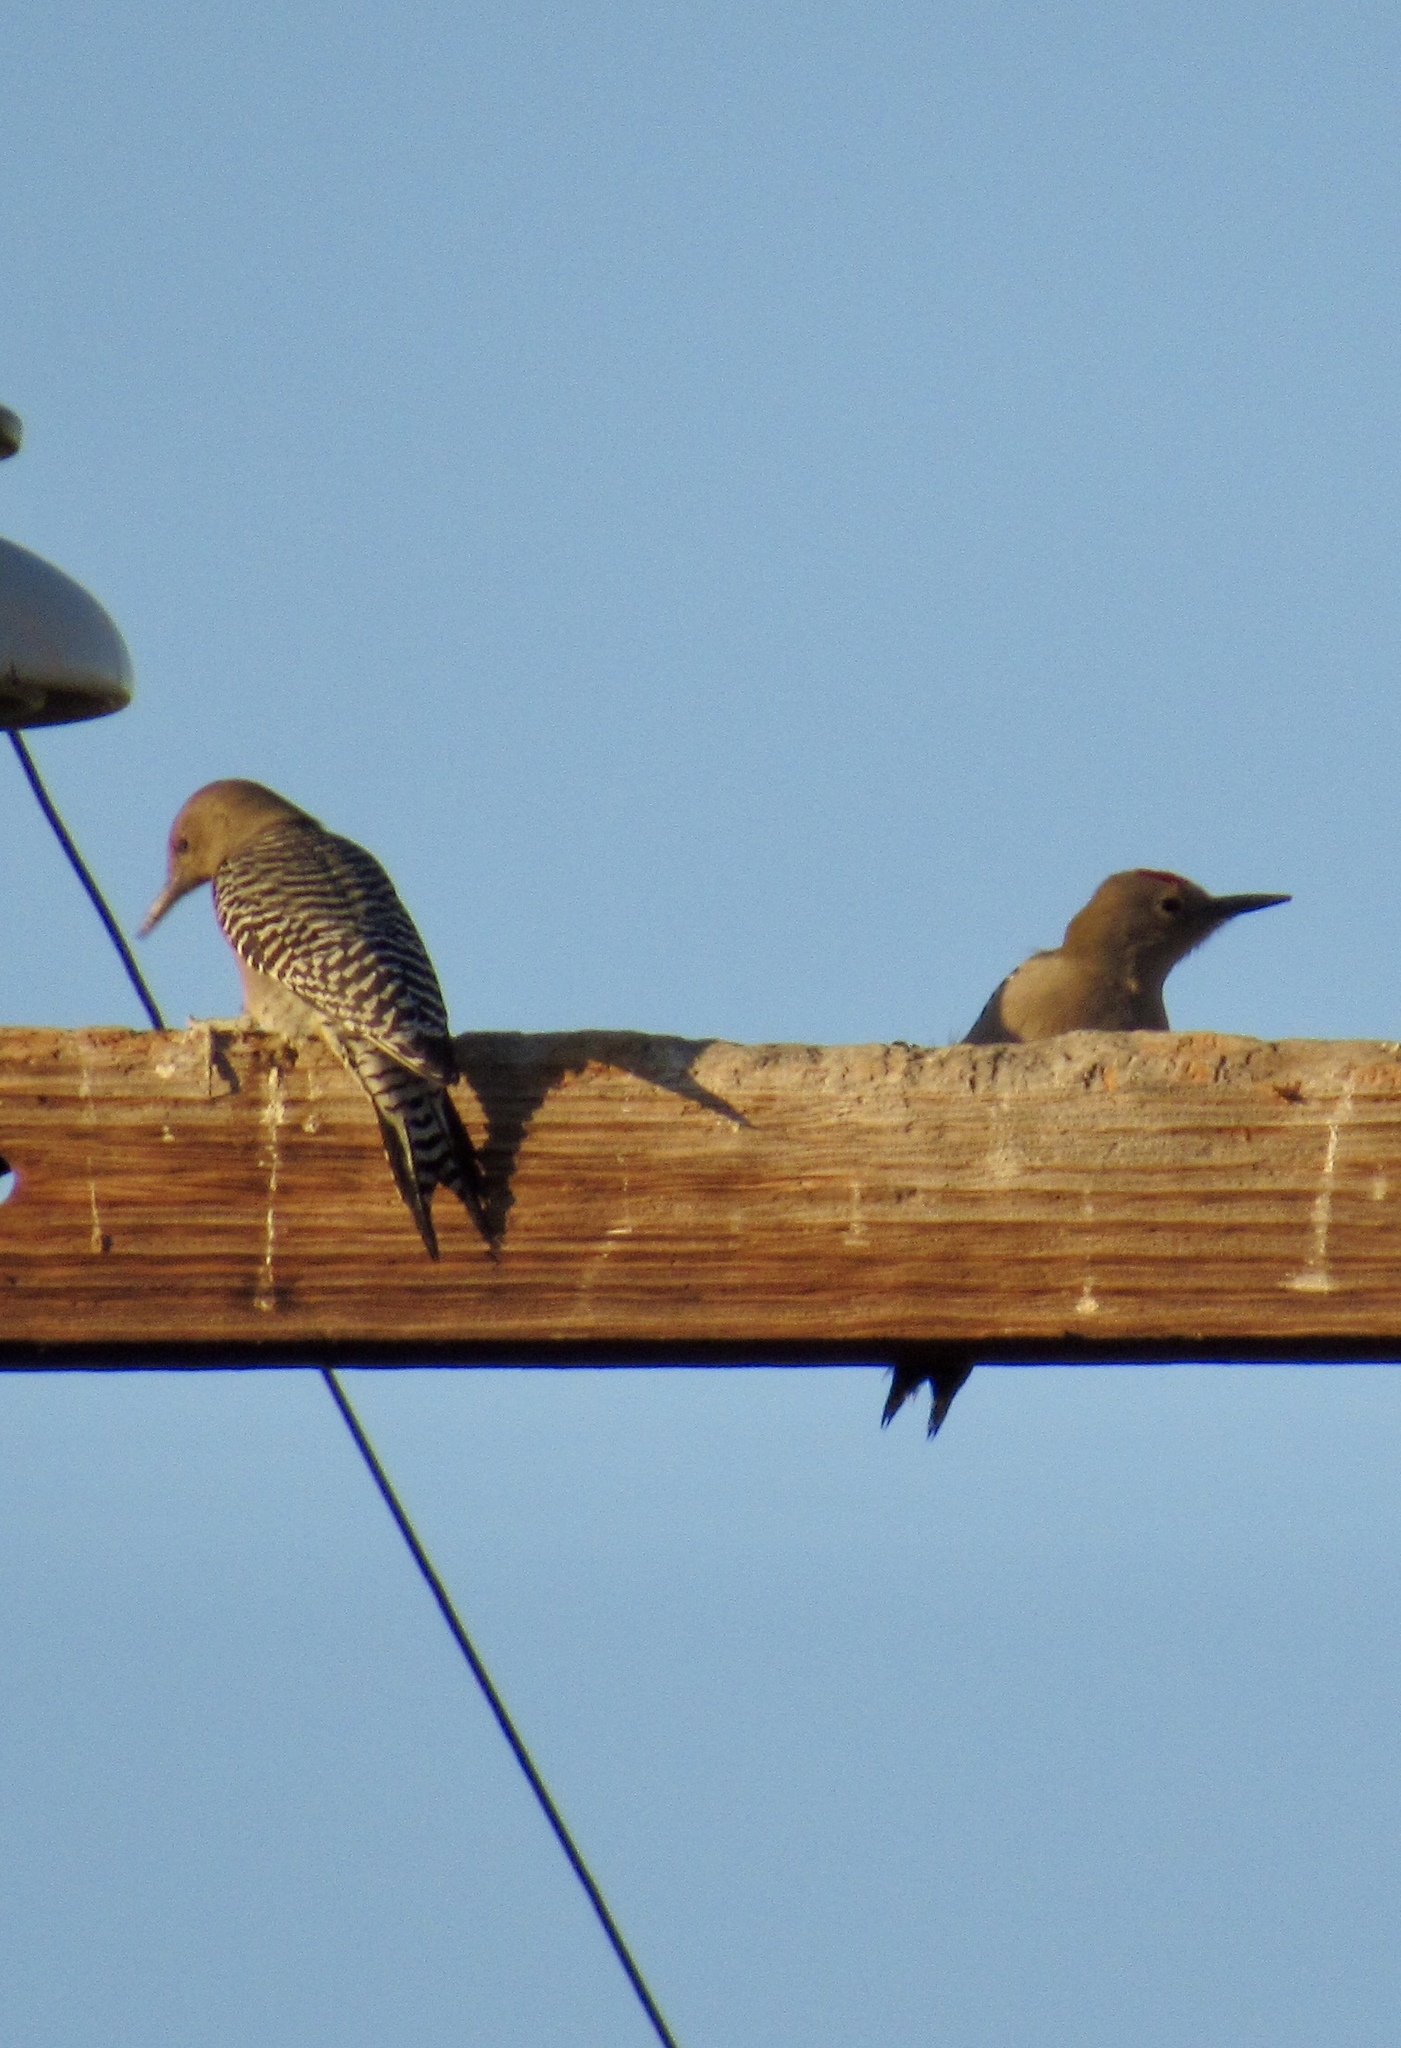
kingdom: Animalia
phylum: Chordata
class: Aves
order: Piciformes
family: Picidae
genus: Melanerpes
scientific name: Melanerpes uropygialis
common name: Gila woodpecker
